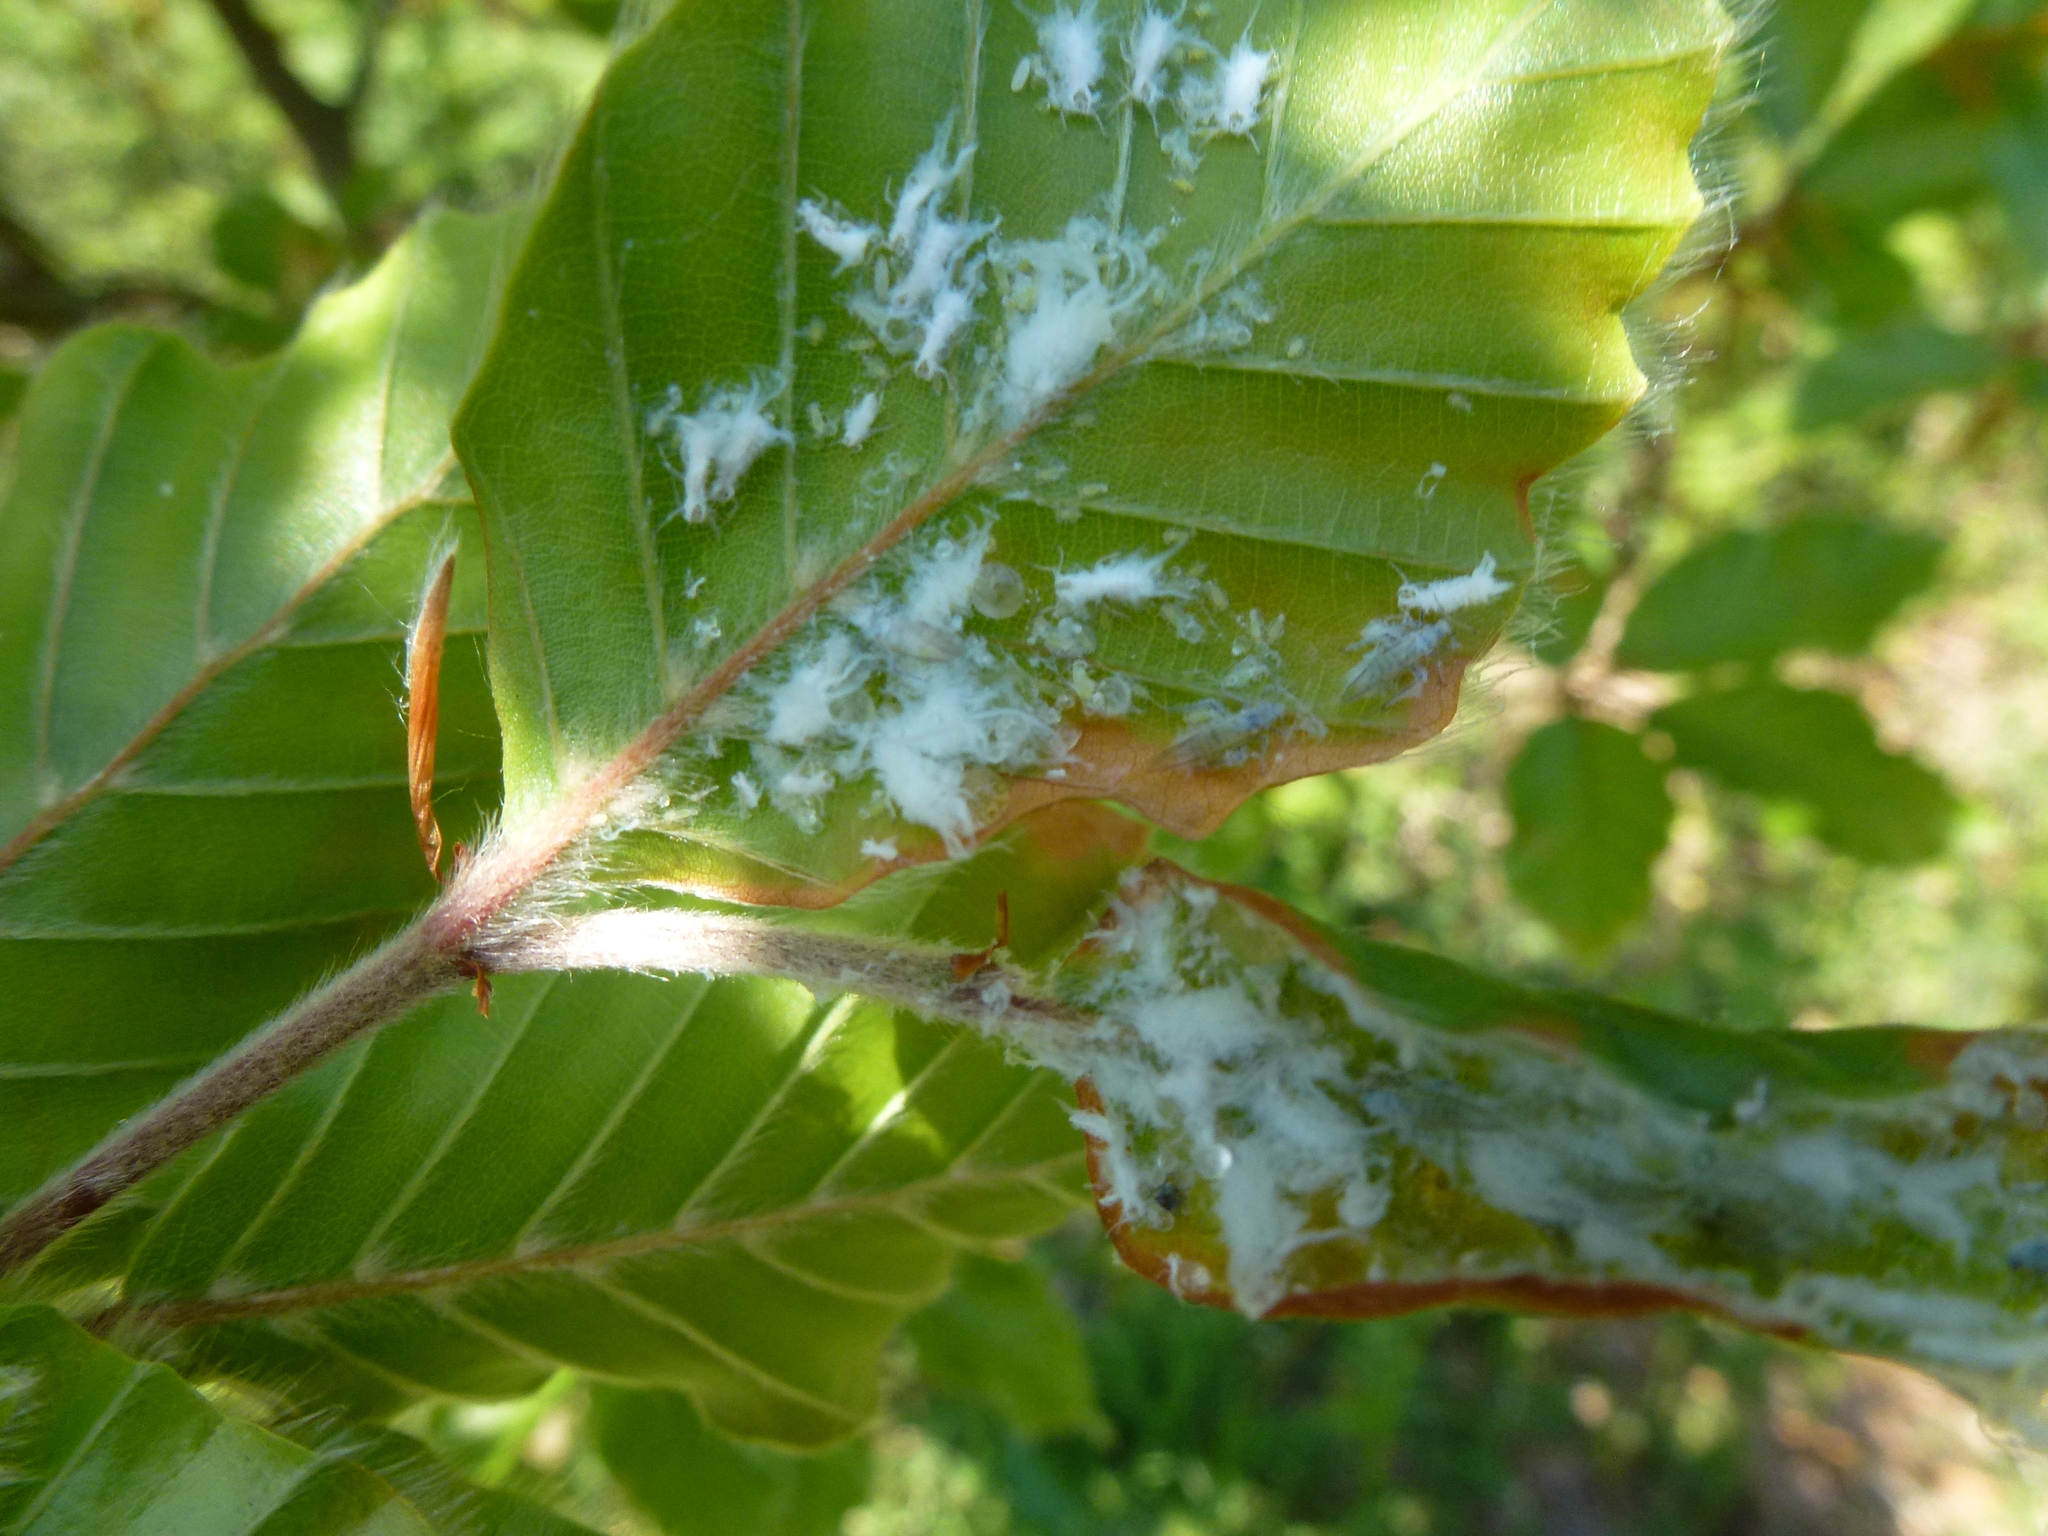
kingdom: Animalia
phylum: Arthropoda
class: Insecta
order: Hemiptera
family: Aphididae
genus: Phyllaphis
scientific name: Phyllaphis fagi
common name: Beech aphid
